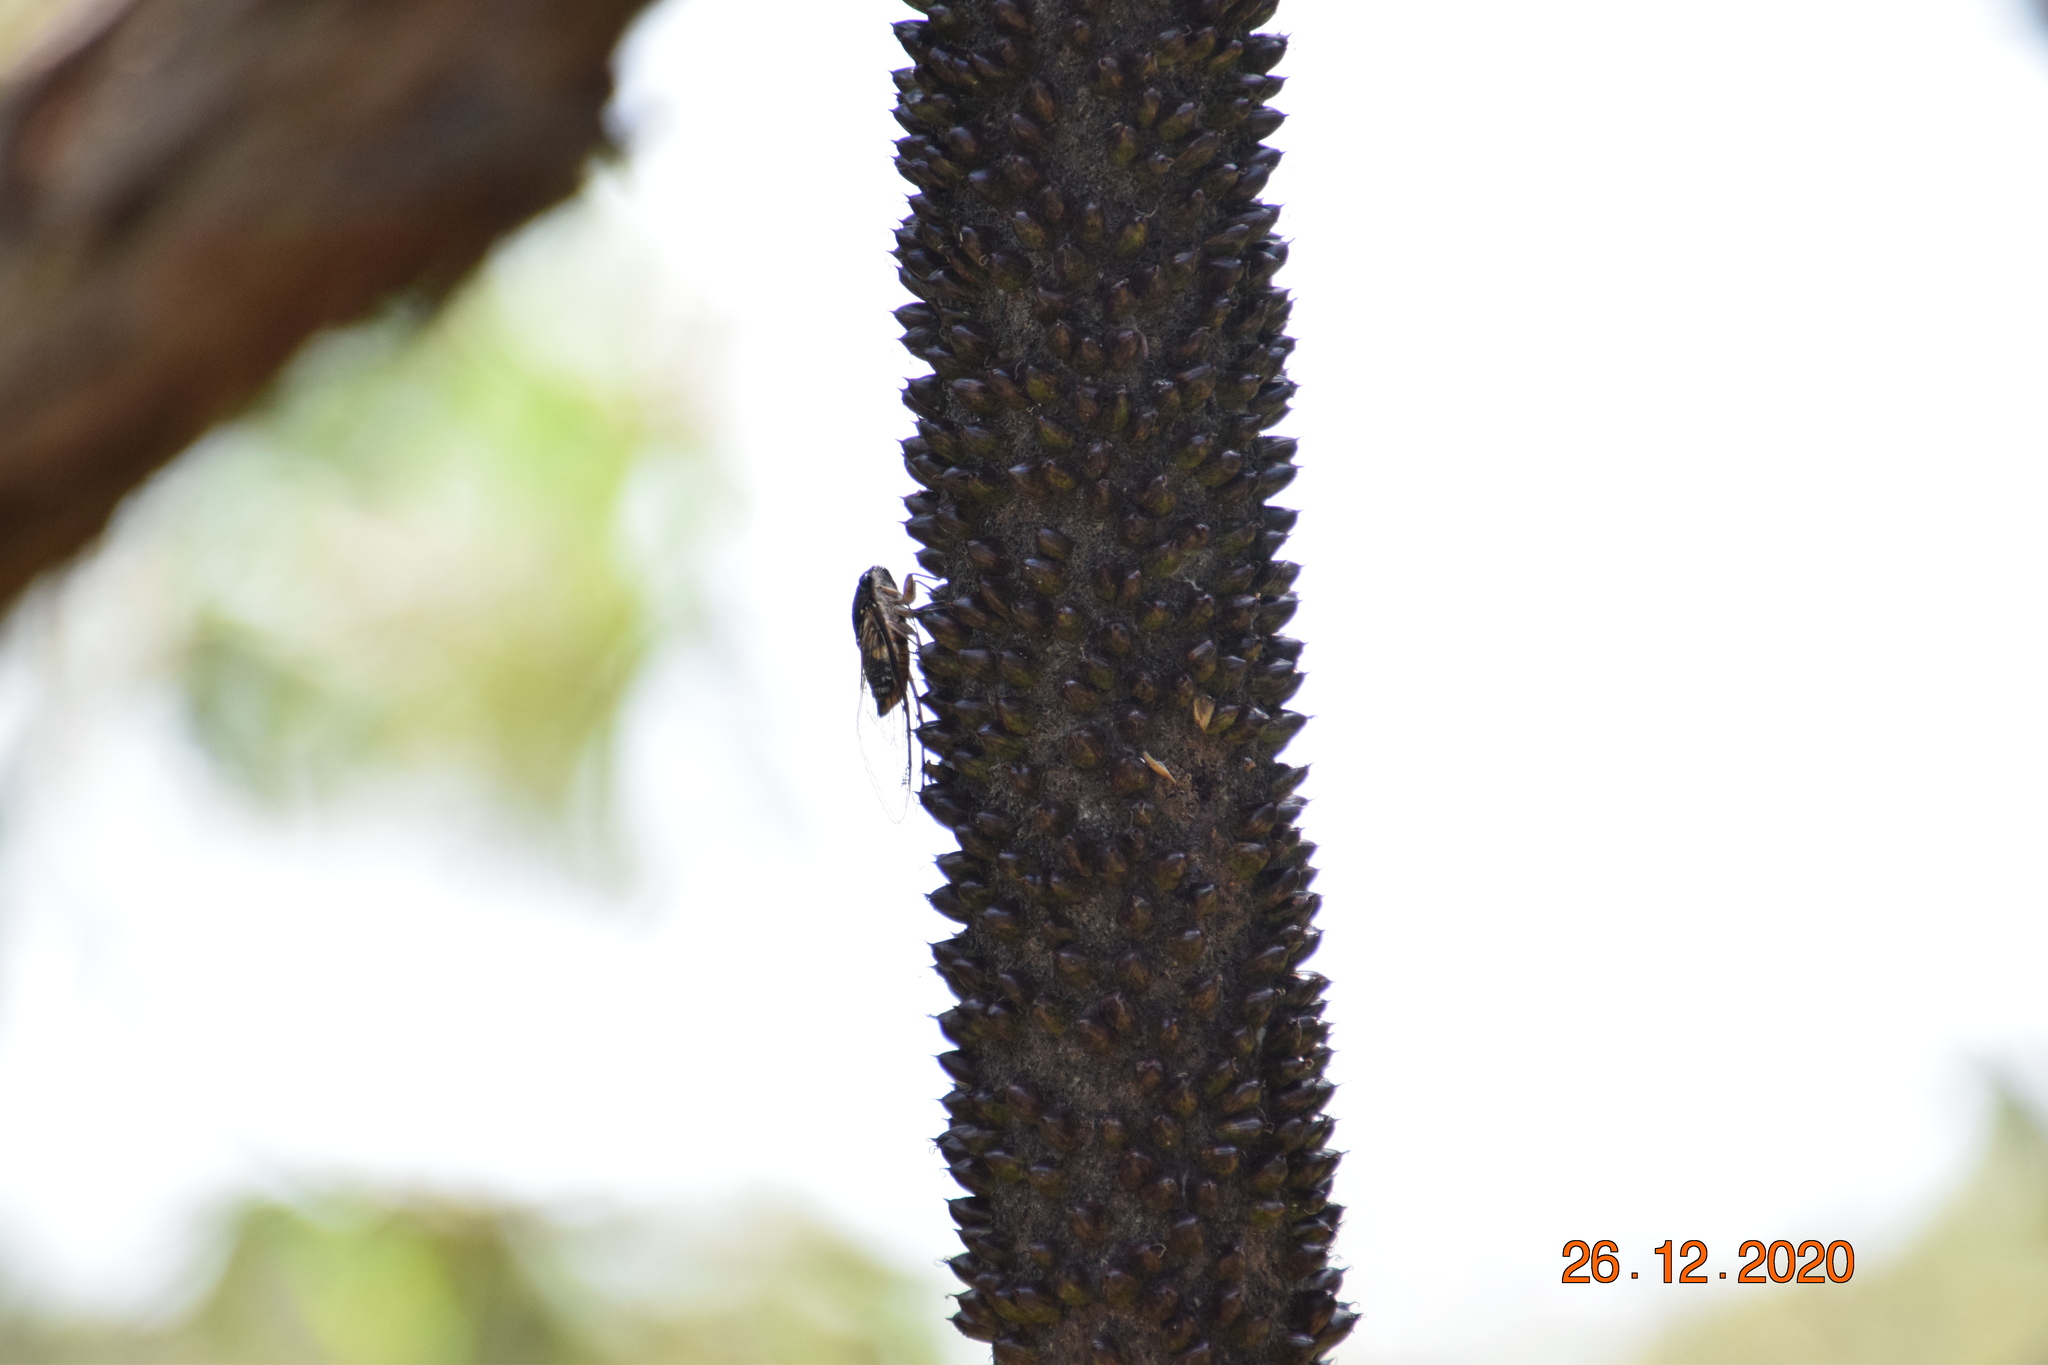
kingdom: Animalia
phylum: Arthropoda
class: Insecta
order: Hemiptera
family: Cicadidae
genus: Psaltoda
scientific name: Psaltoda harrisii
